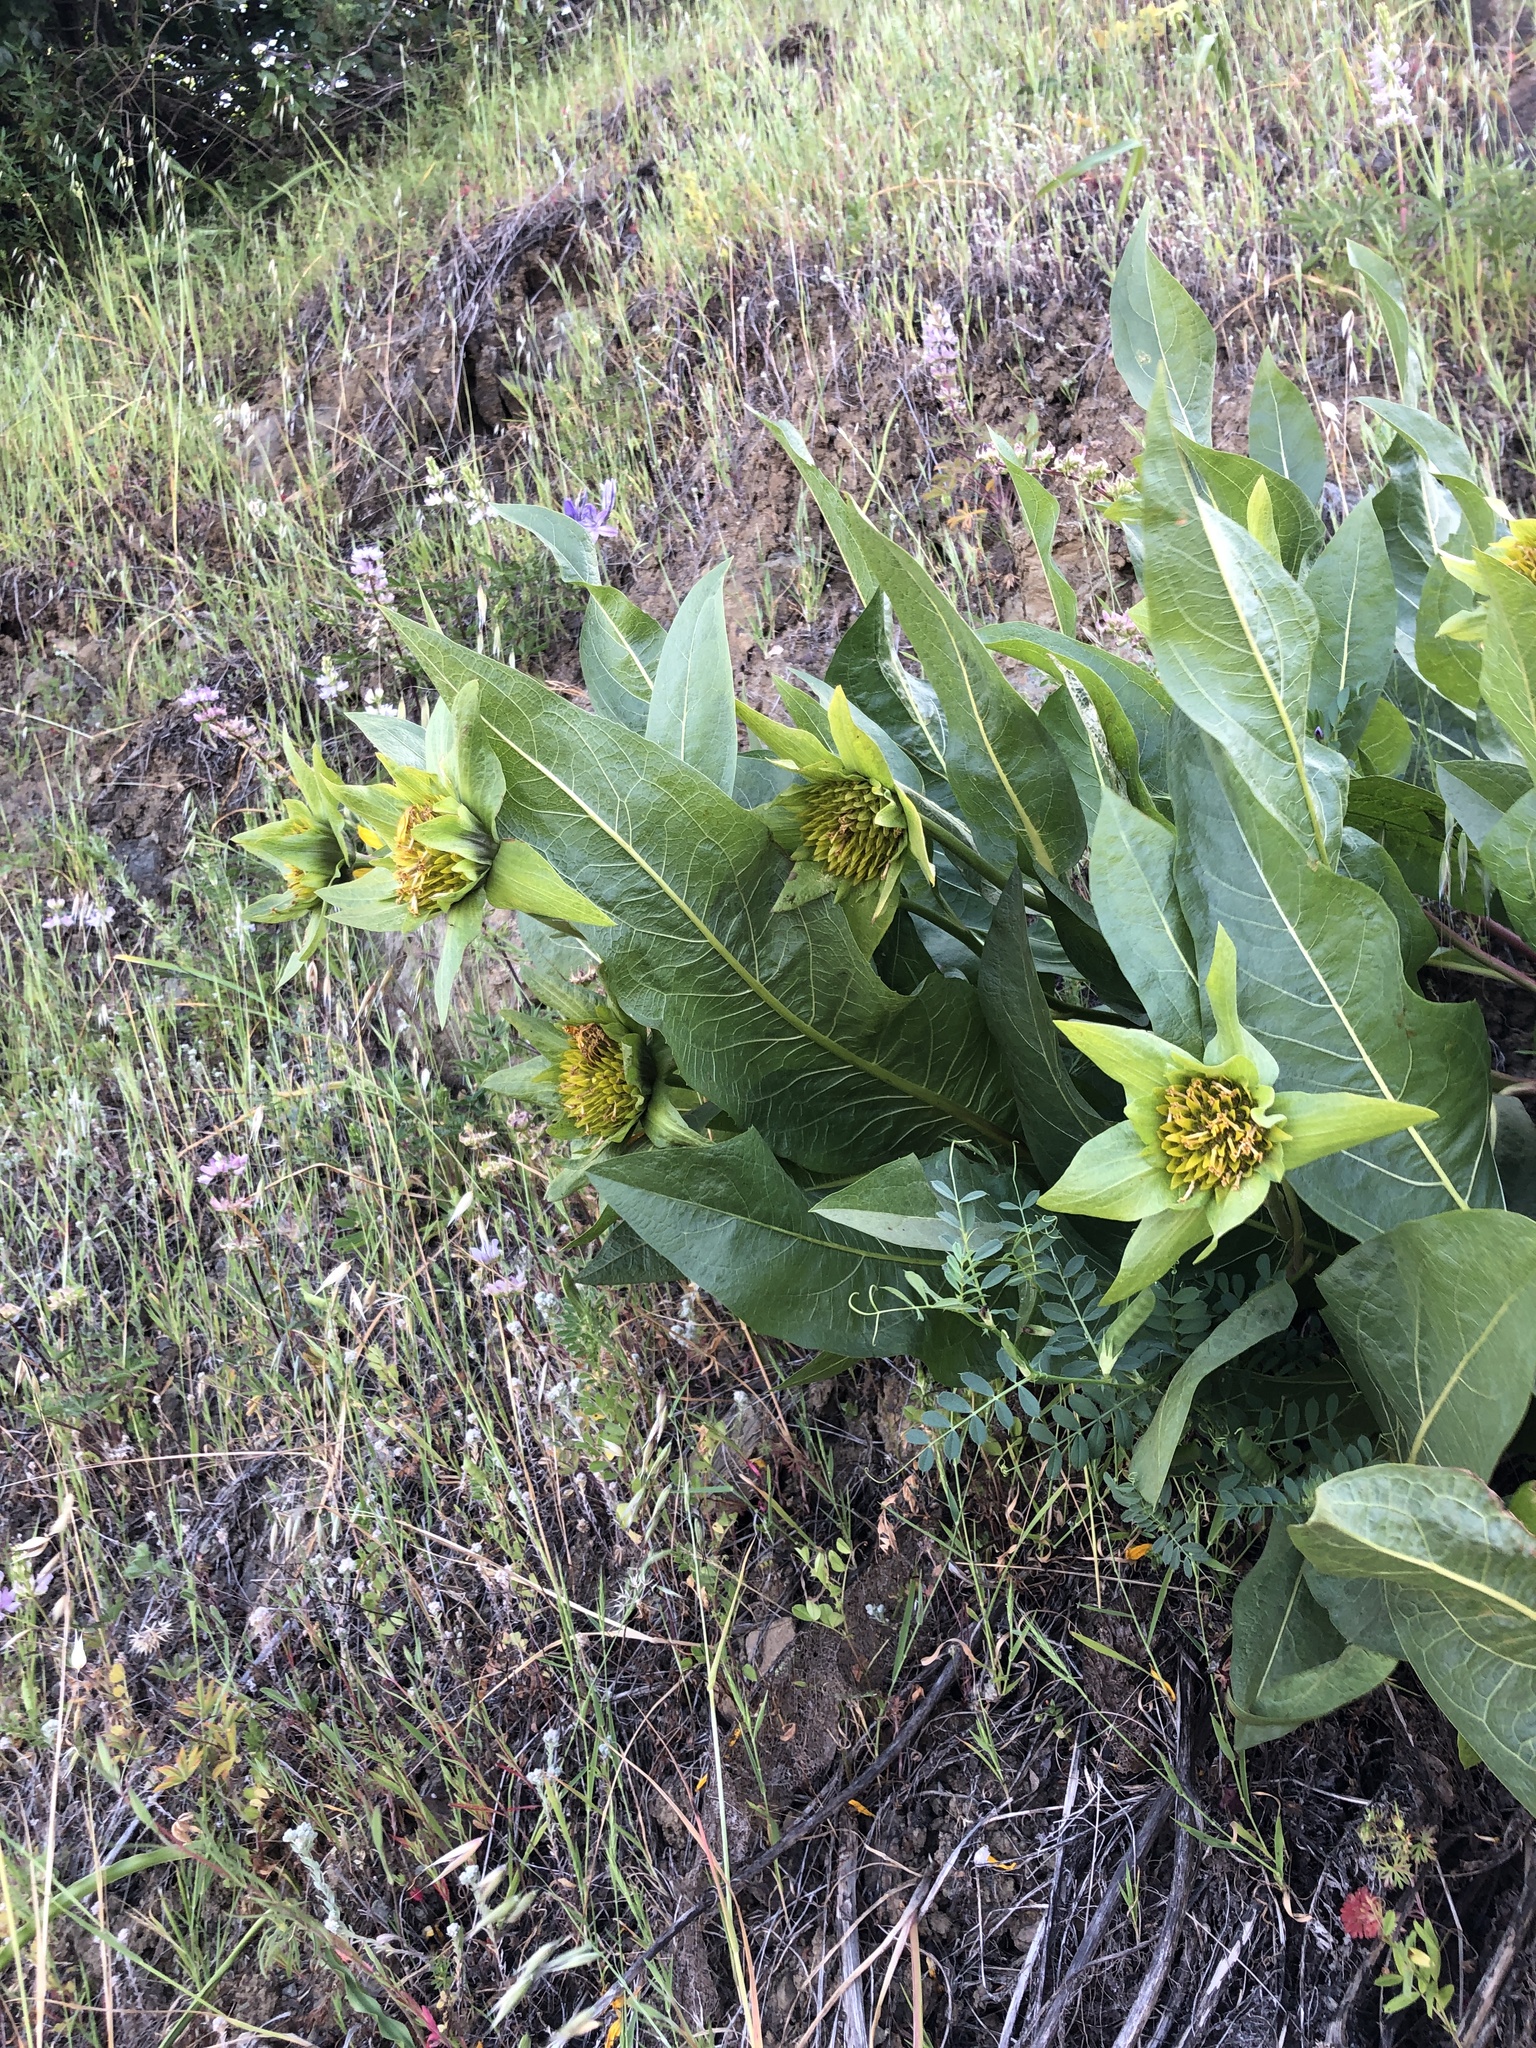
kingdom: Plantae
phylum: Tracheophyta
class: Magnoliopsida
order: Asterales
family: Asteraceae
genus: Wyethia
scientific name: Wyethia glabra
